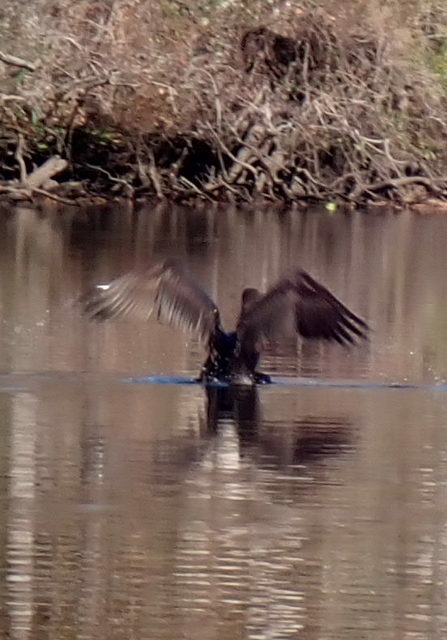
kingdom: Animalia
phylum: Chordata
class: Aves
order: Suliformes
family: Phalacrocoracidae
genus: Phalacrocorax
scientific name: Phalacrocorax auritus
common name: Double-crested cormorant
